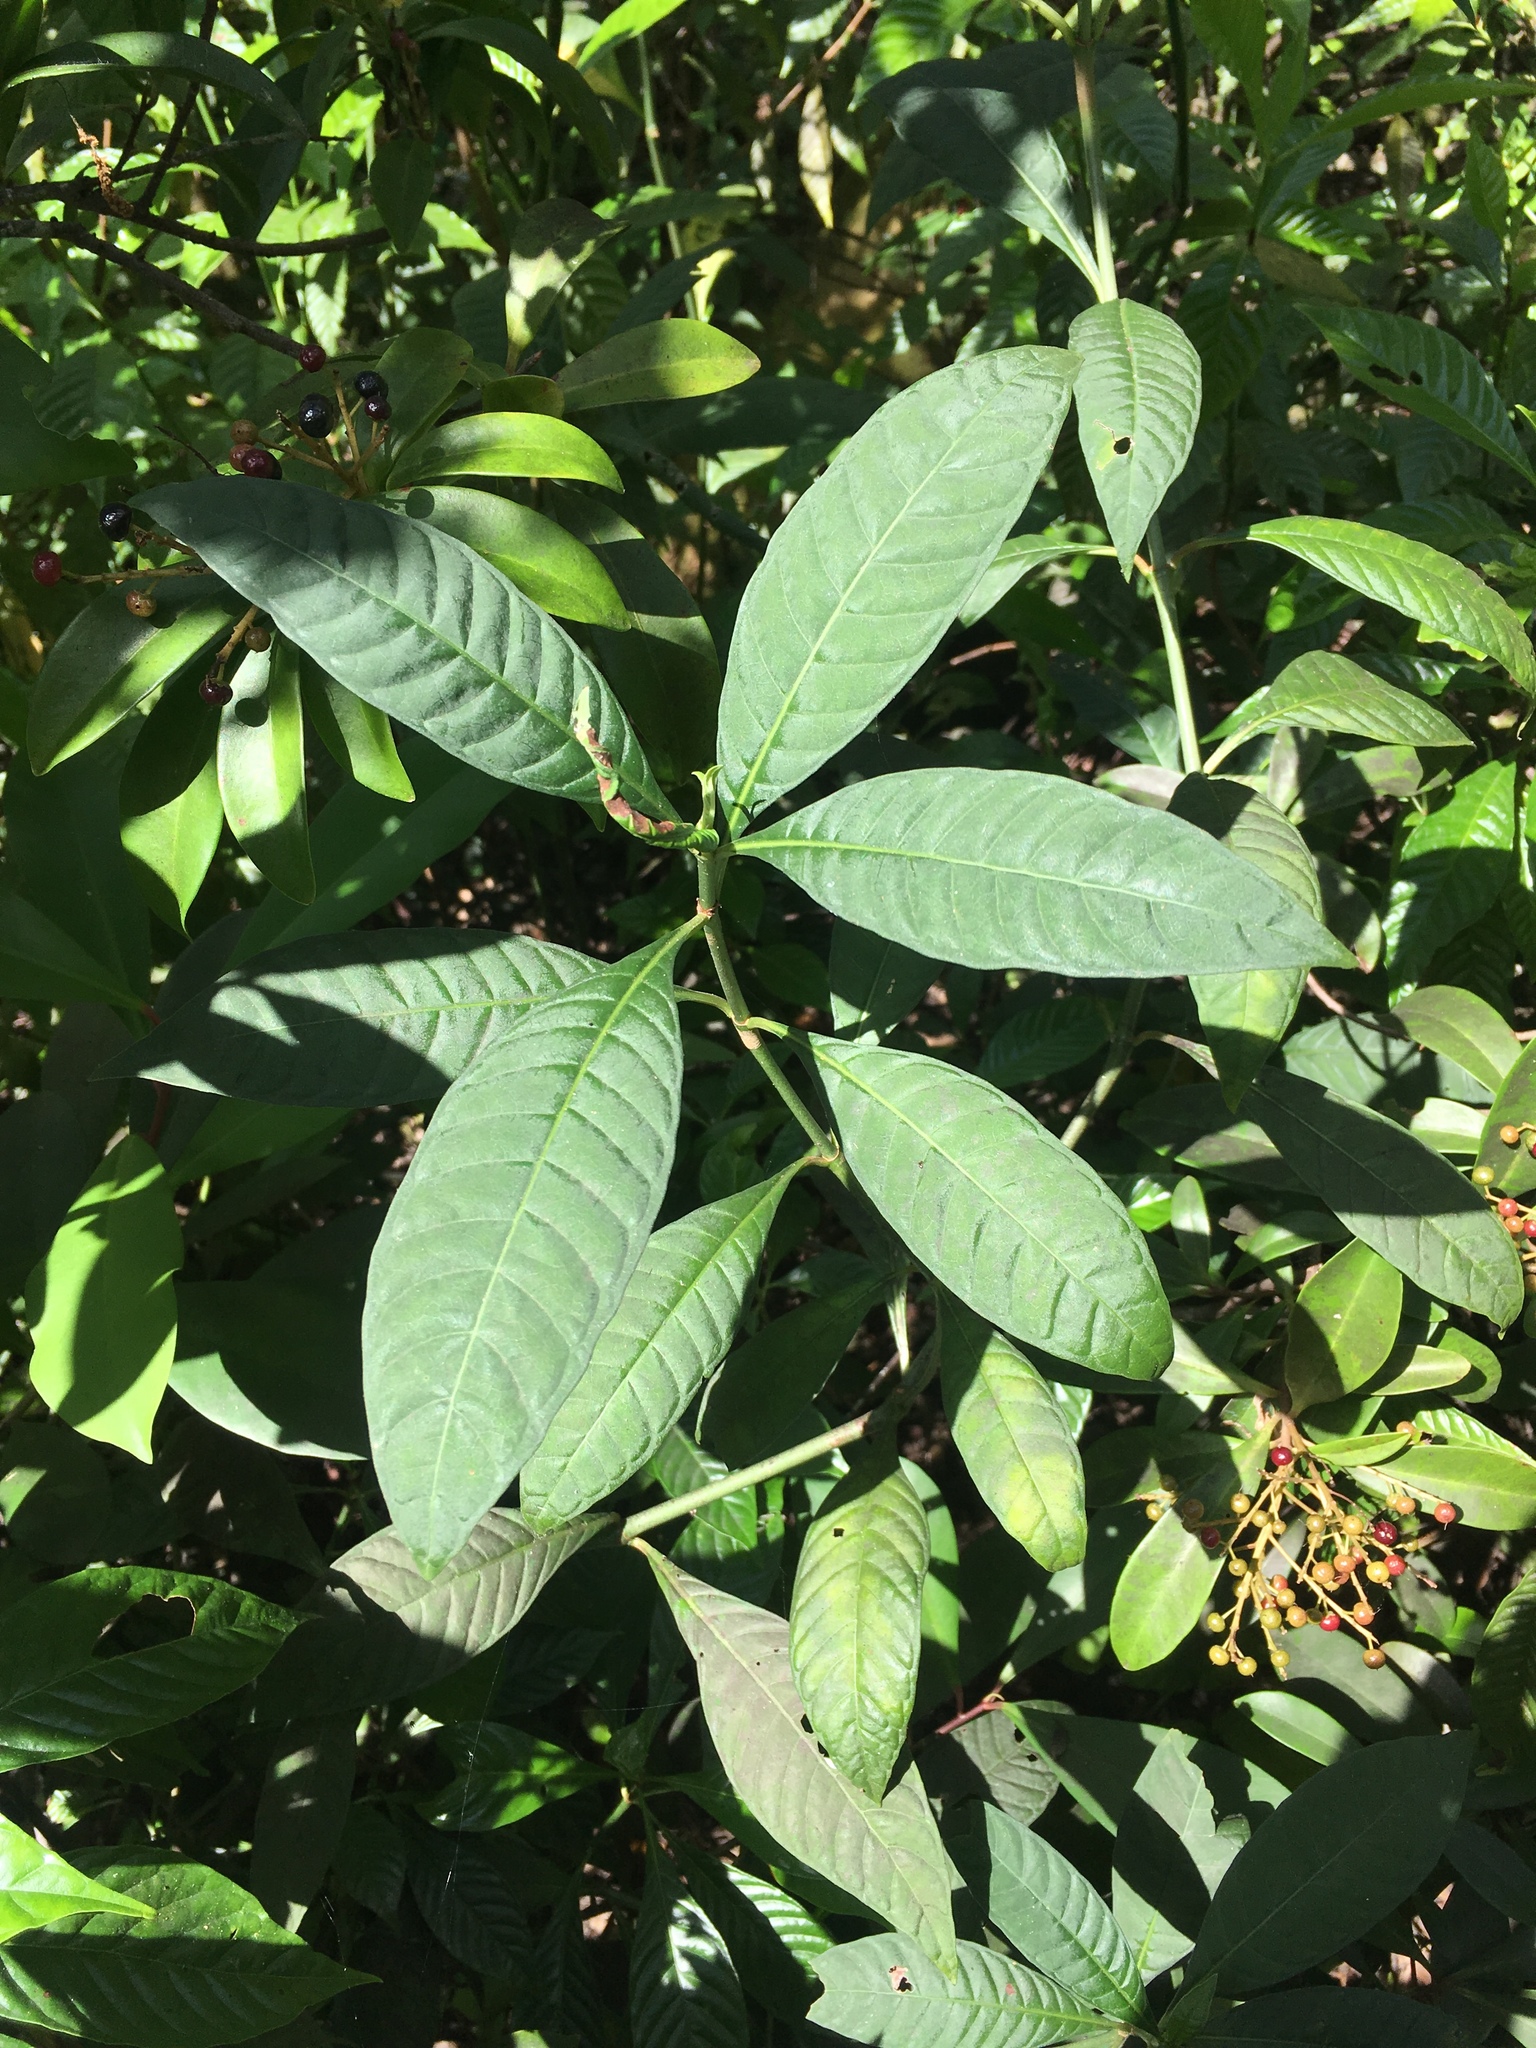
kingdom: Plantae
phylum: Tracheophyta
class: Magnoliopsida
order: Gentianales
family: Rubiaceae
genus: Psychotria
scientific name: Psychotria tenuifolia
